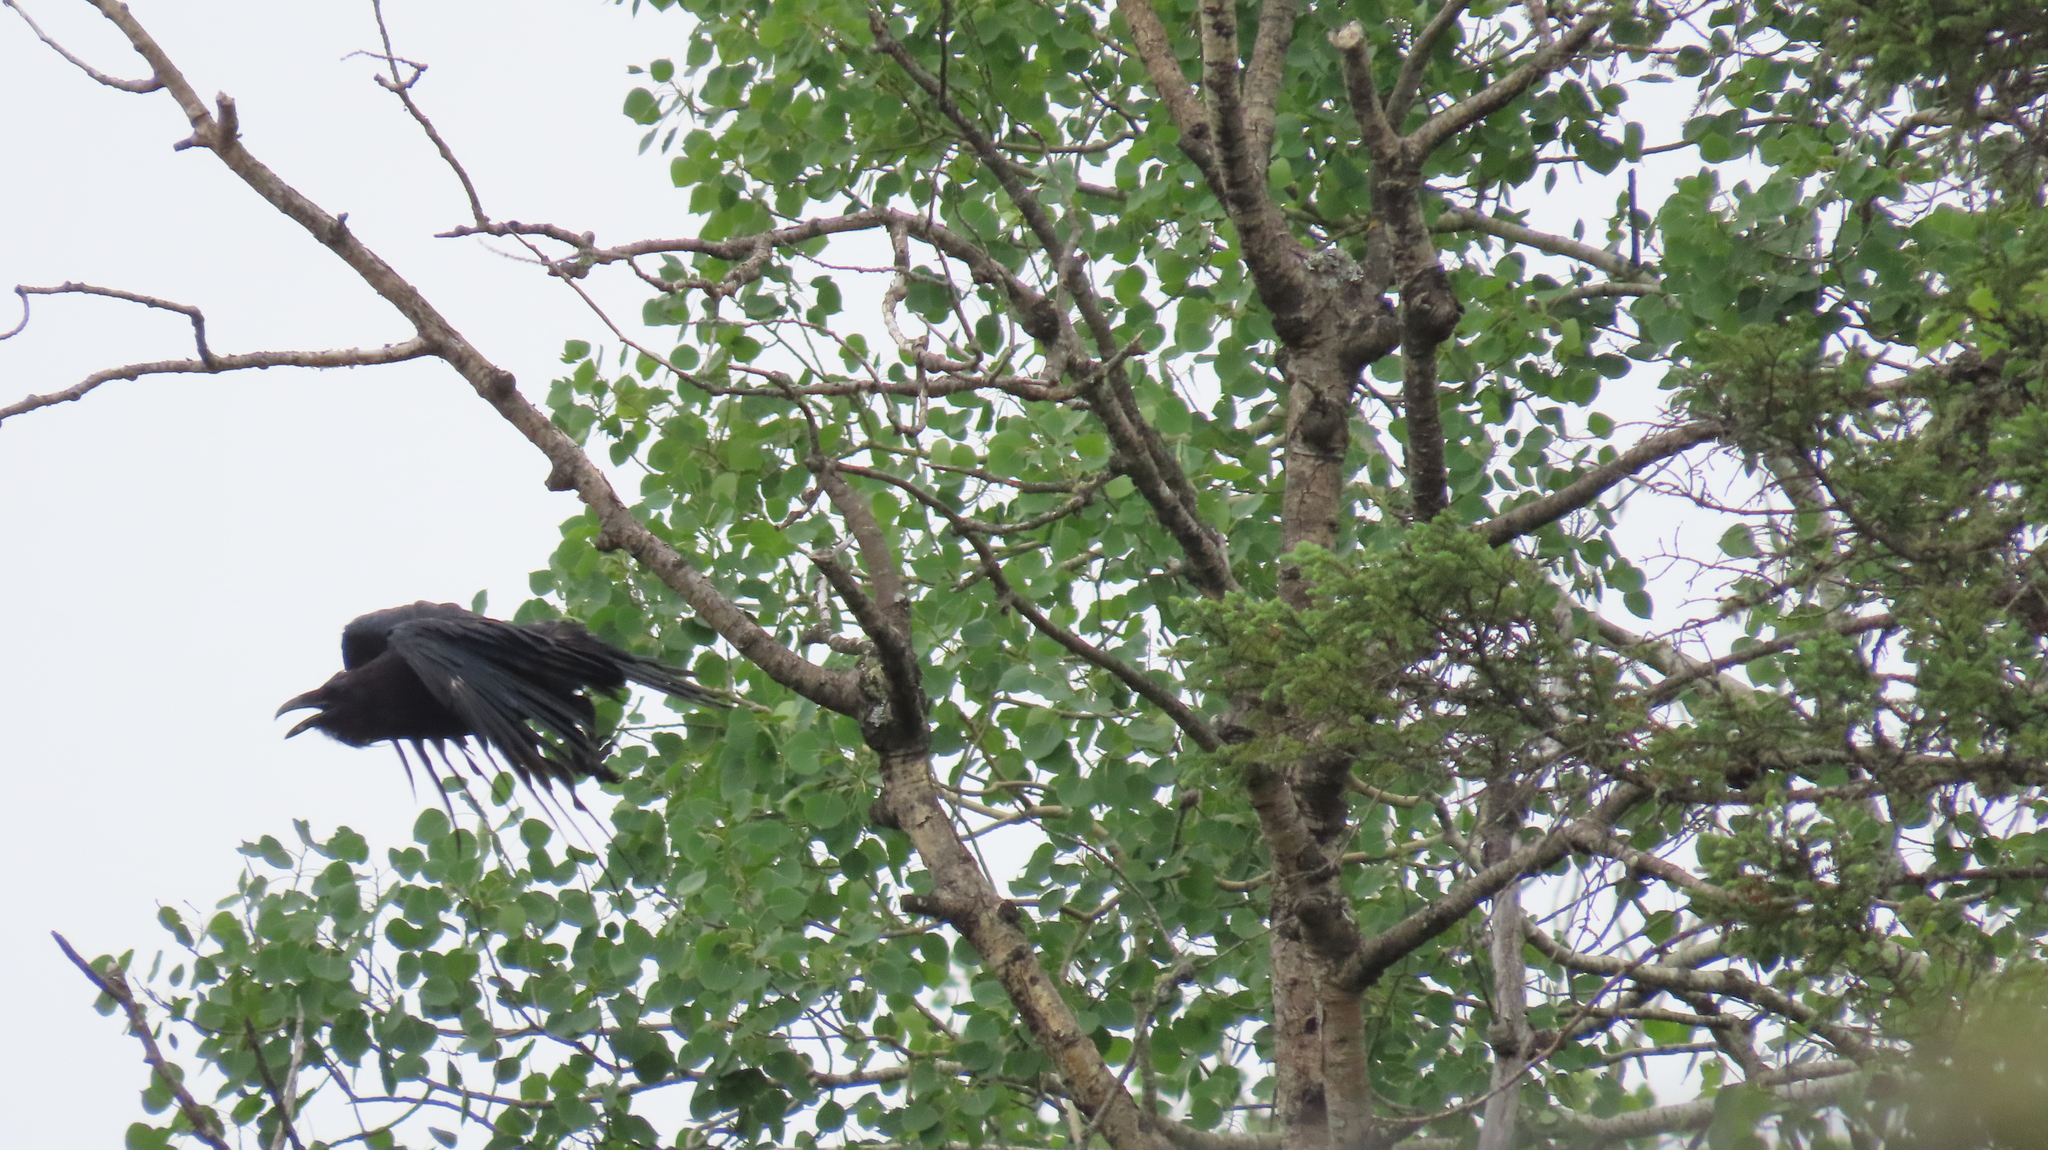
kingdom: Animalia
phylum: Chordata
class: Aves
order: Passeriformes
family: Corvidae
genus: Corvus
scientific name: Corvus corax
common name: Common raven
